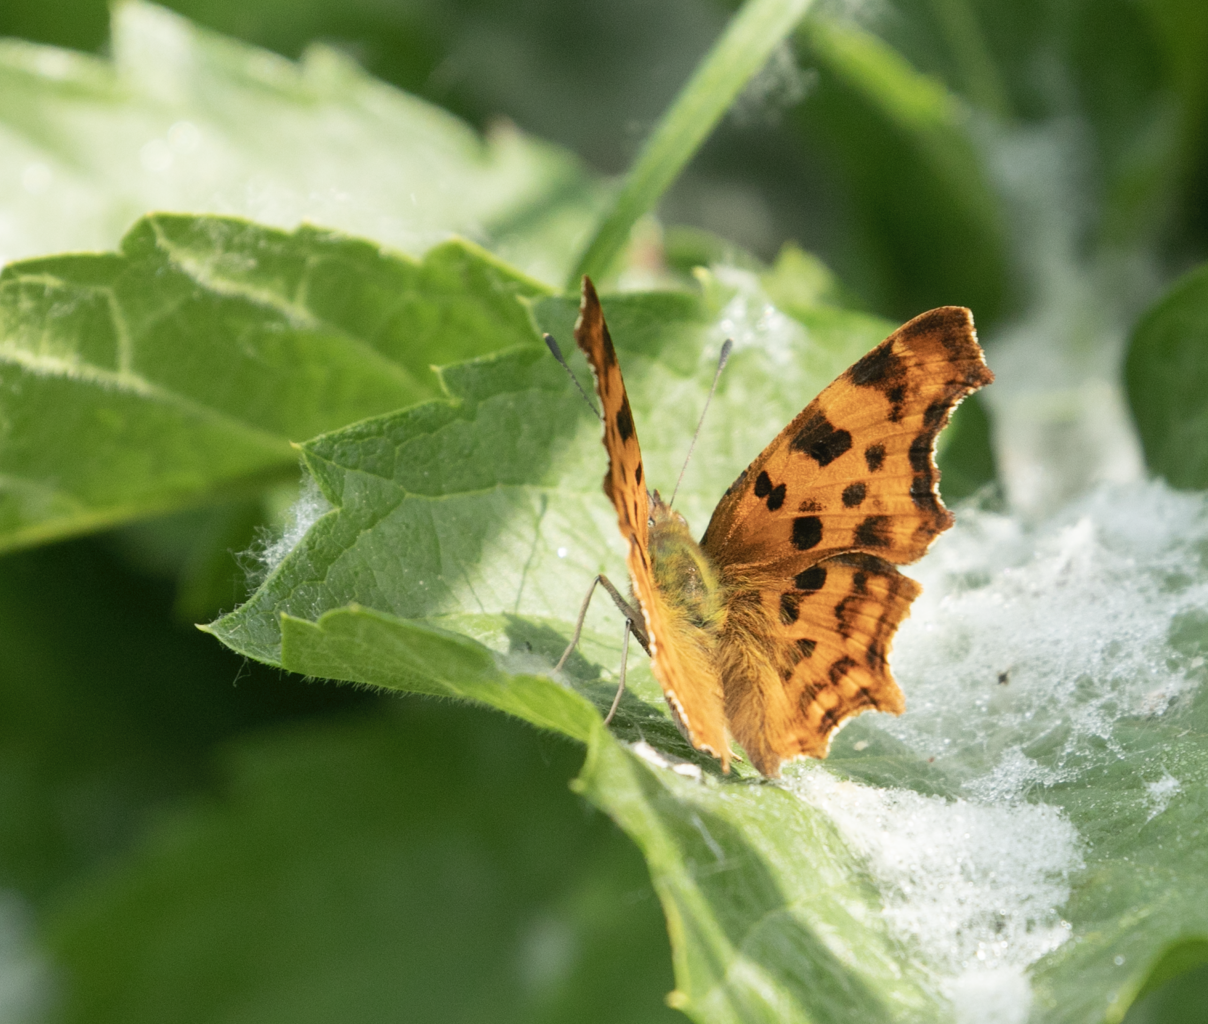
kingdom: Animalia
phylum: Arthropoda
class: Insecta
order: Lepidoptera
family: Nymphalidae
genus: Polygonia
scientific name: Polygonia c-album
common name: Comma
